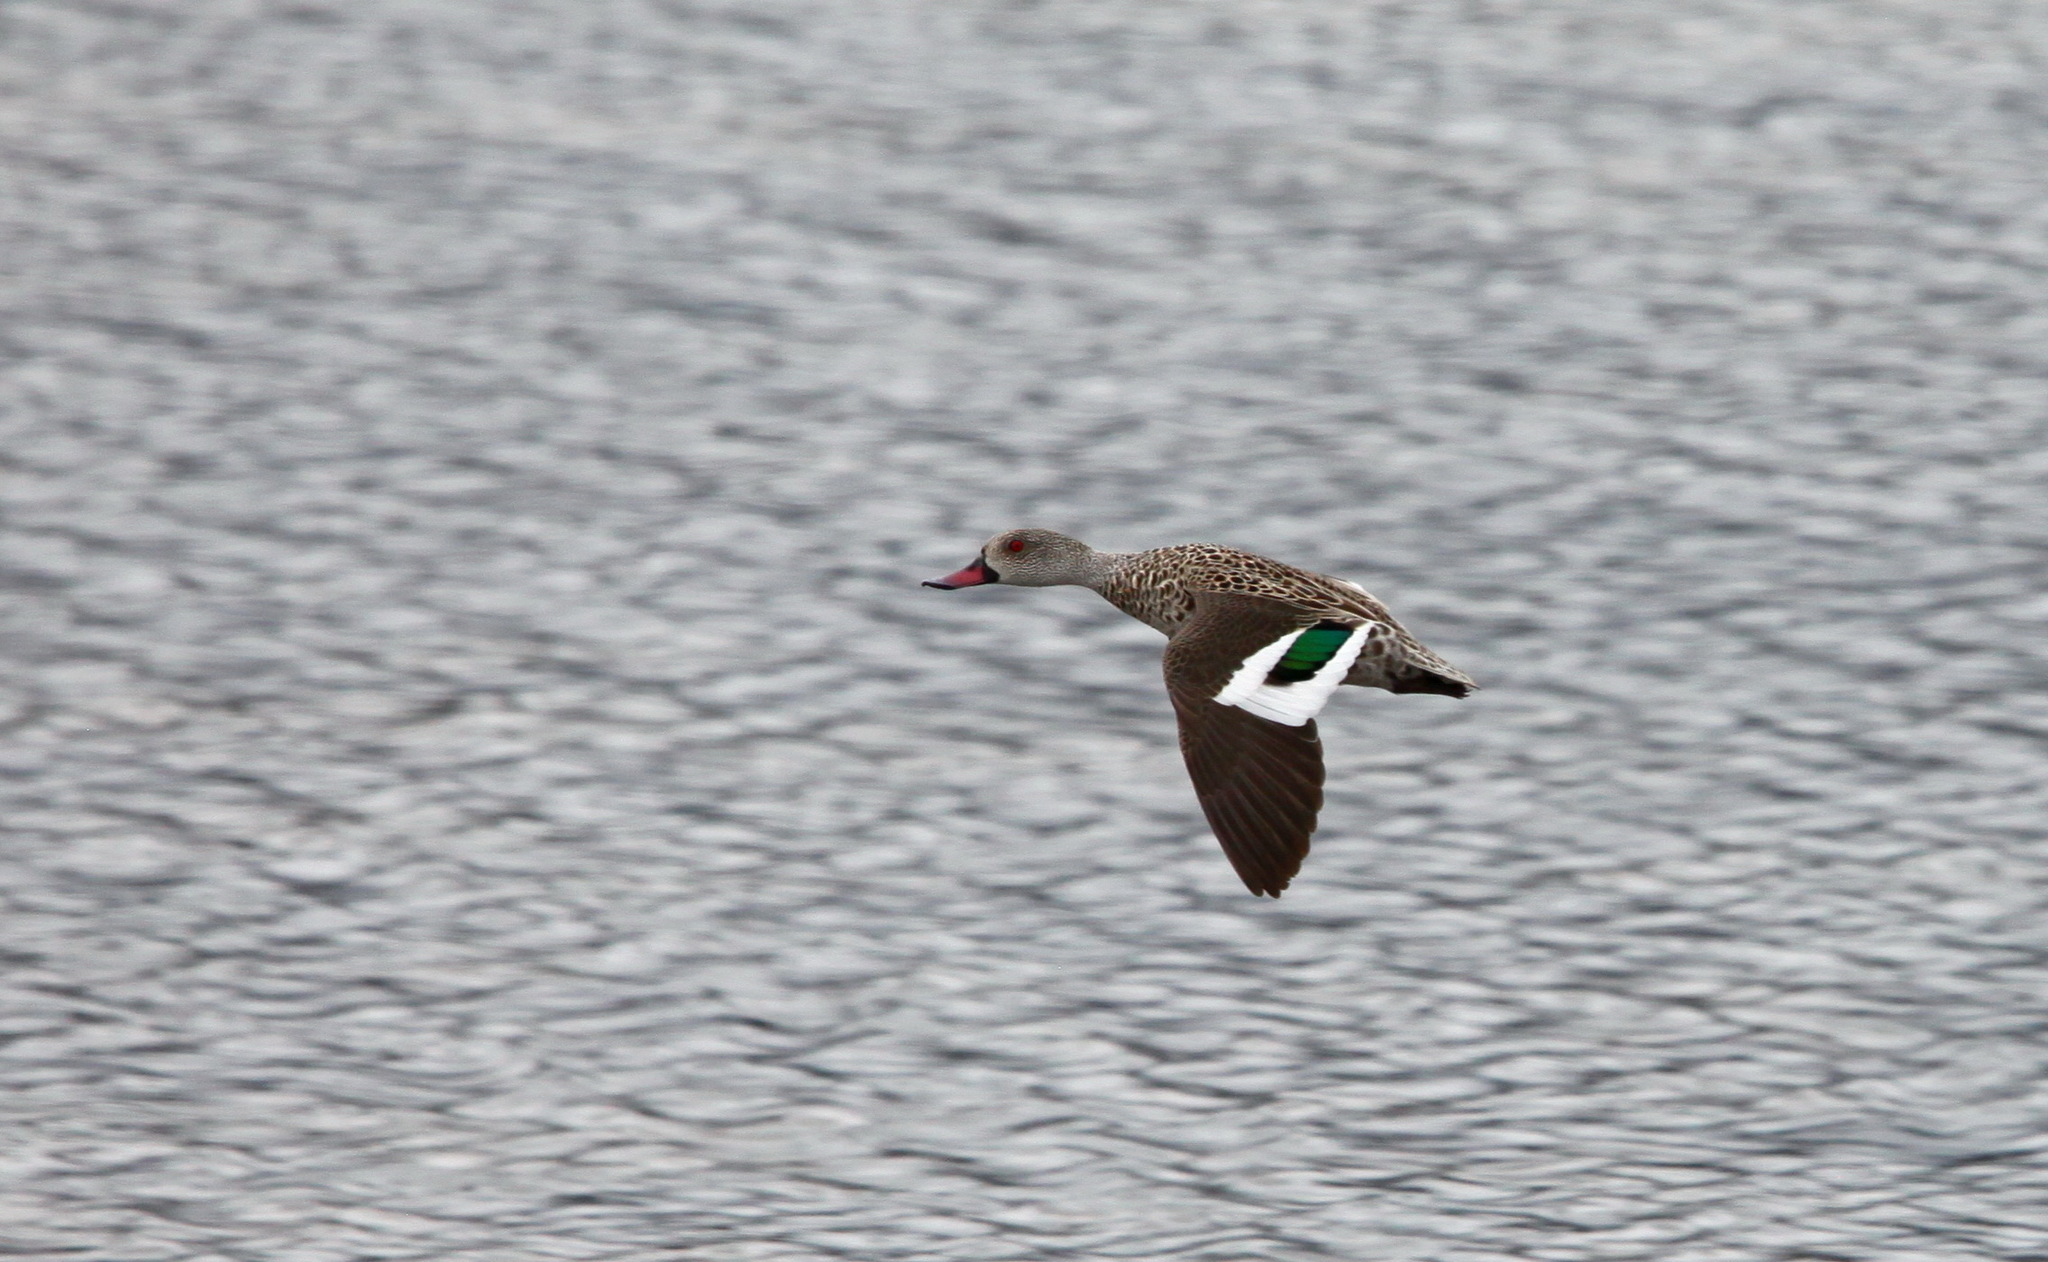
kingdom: Animalia
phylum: Chordata
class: Aves
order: Anseriformes
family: Anatidae
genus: Anas
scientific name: Anas capensis
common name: Cape teal
